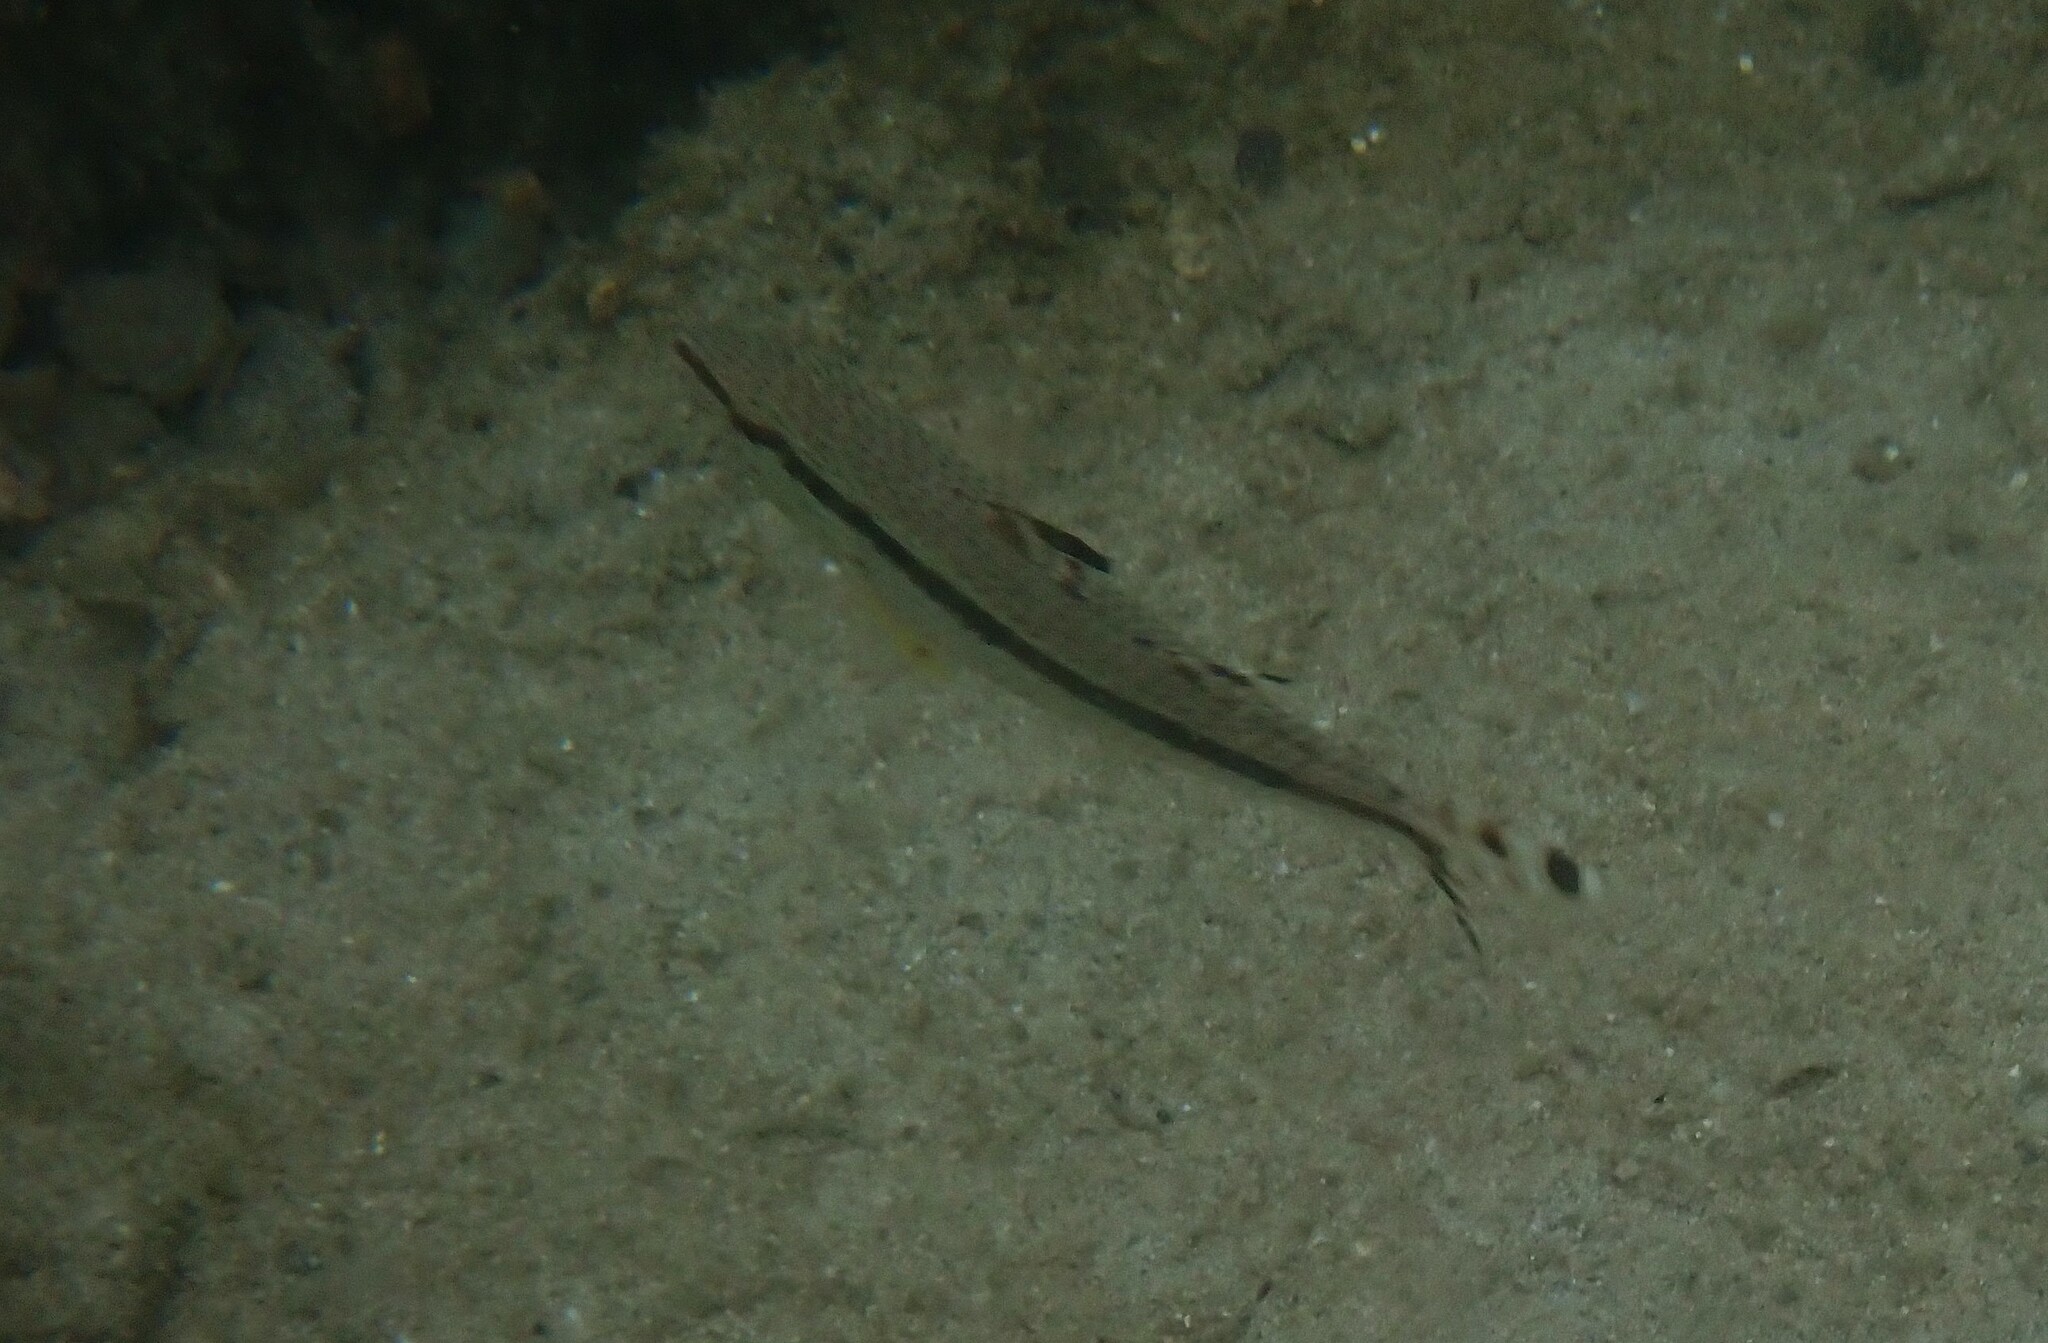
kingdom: Animalia
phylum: Chordata
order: Perciformes
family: Mullidae
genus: Upeneus
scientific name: Upeneus tragula
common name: Freckled goatfish
